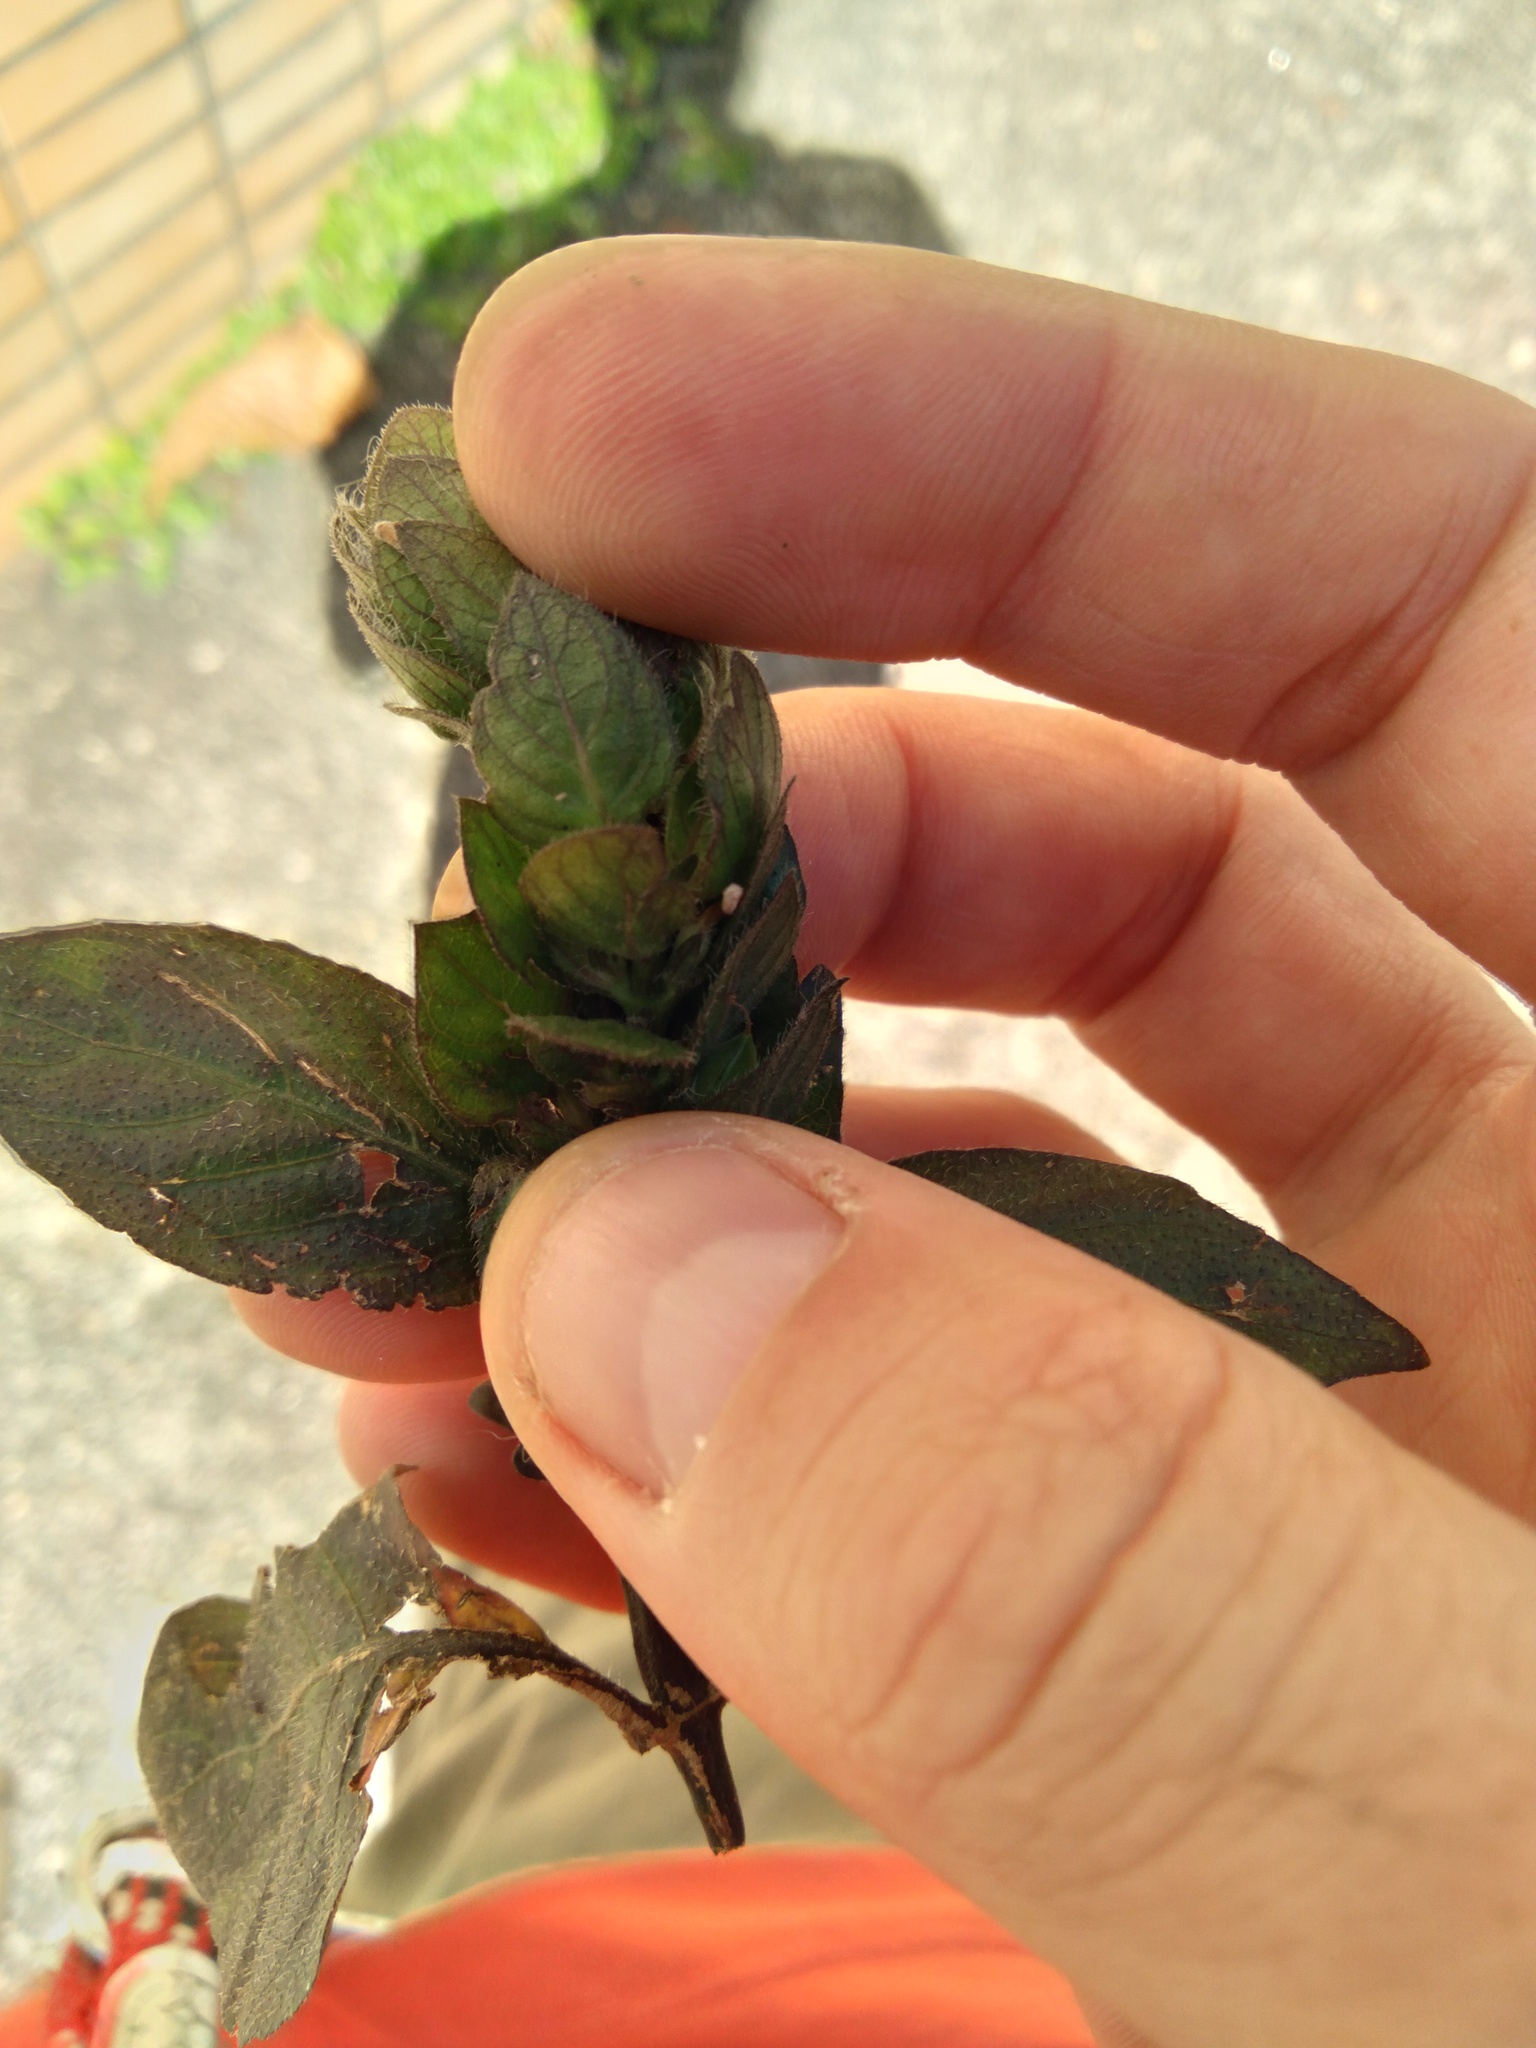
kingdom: Plantae
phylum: Tracheophyta
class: Magnoliopsida
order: Lamiales
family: Acanthaceae
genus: Ruellia
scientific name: Ruellia blechum
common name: Browne's blechum
